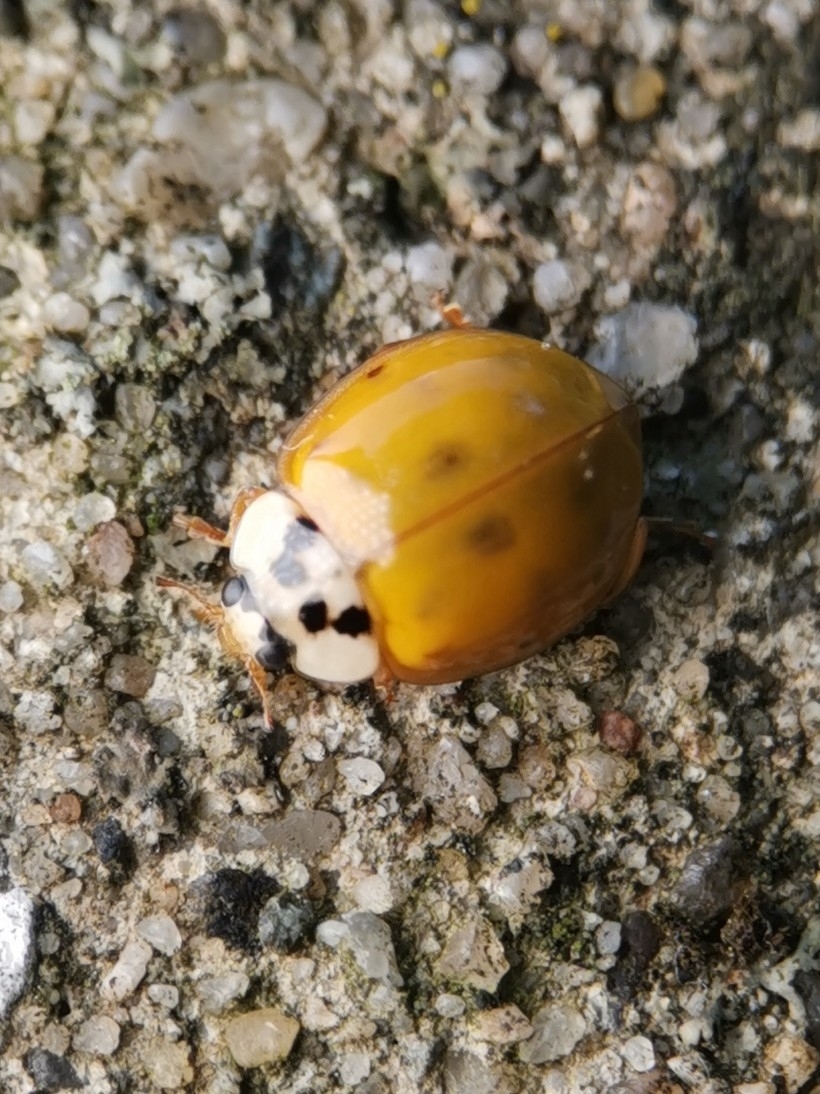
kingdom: Animalia
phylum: Arthropoda
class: Insecta
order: Coleoptera
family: Coccinellidae
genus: Harmonia
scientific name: Harmonia axyridis
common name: Harlequin ladybird
